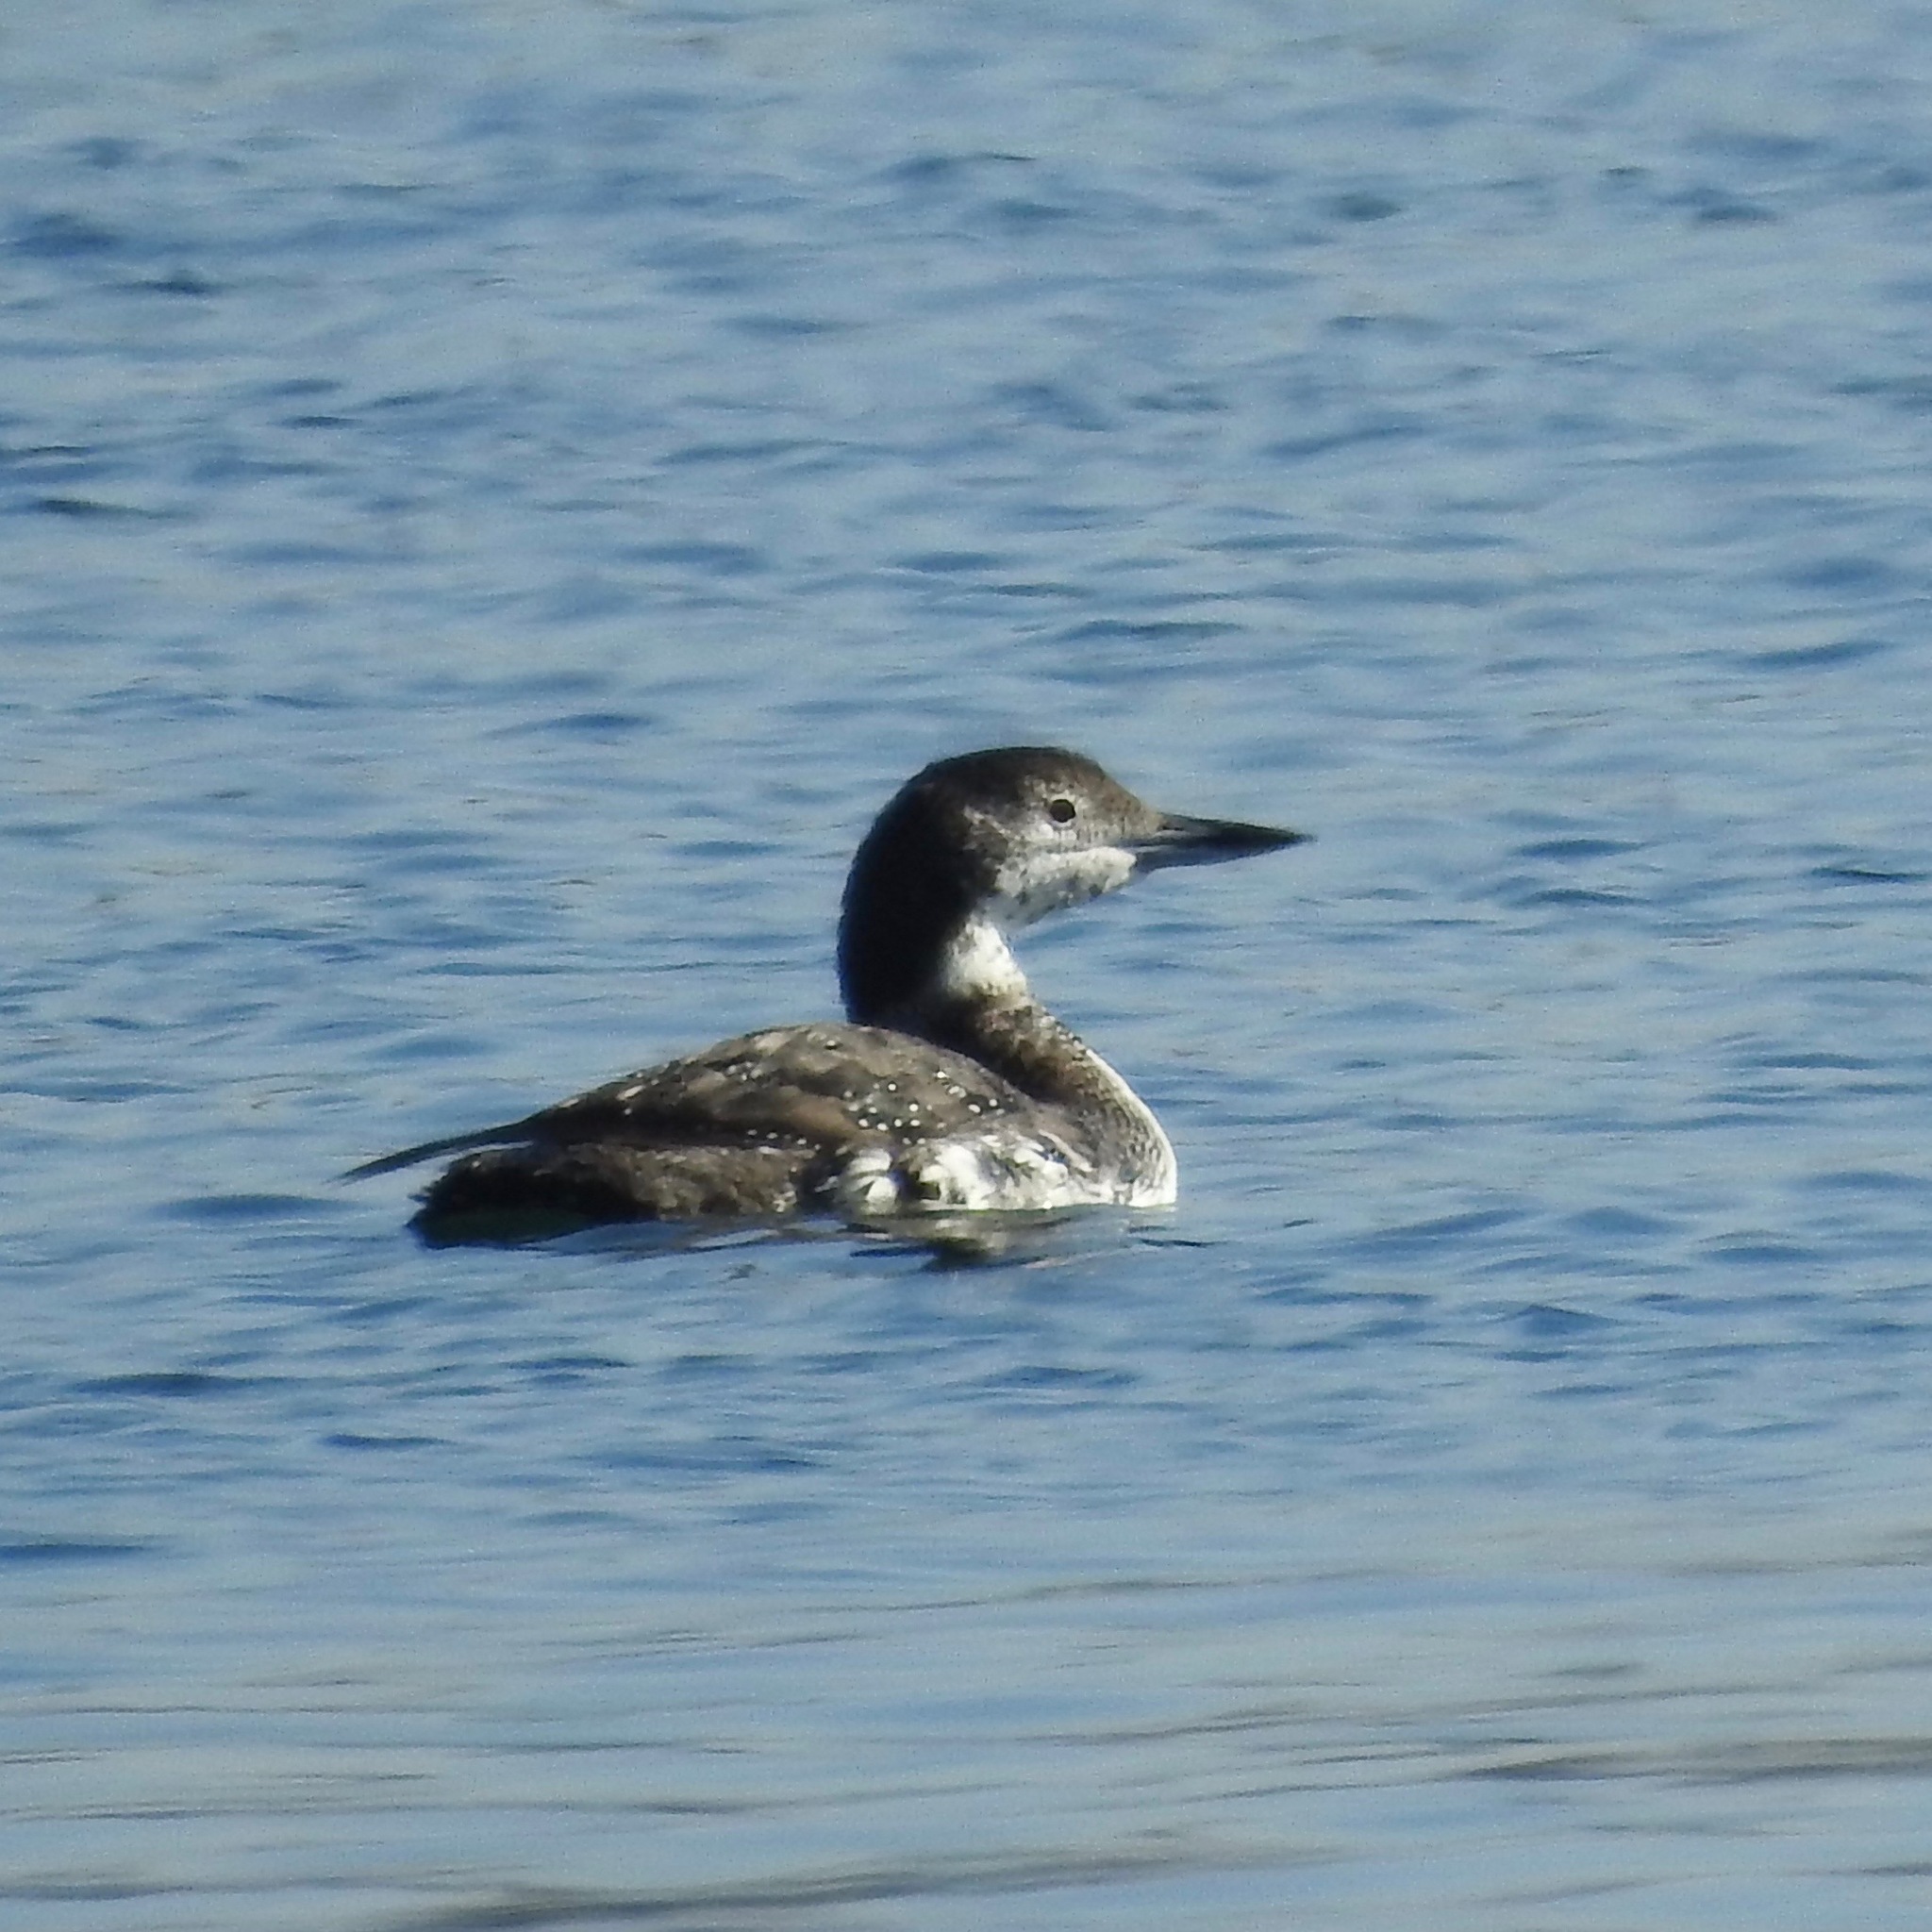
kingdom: Animalia
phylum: Chordata
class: Aves
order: Gaviiformes
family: Gaviidae
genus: Gavia
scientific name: Gavia immer
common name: Common loon
